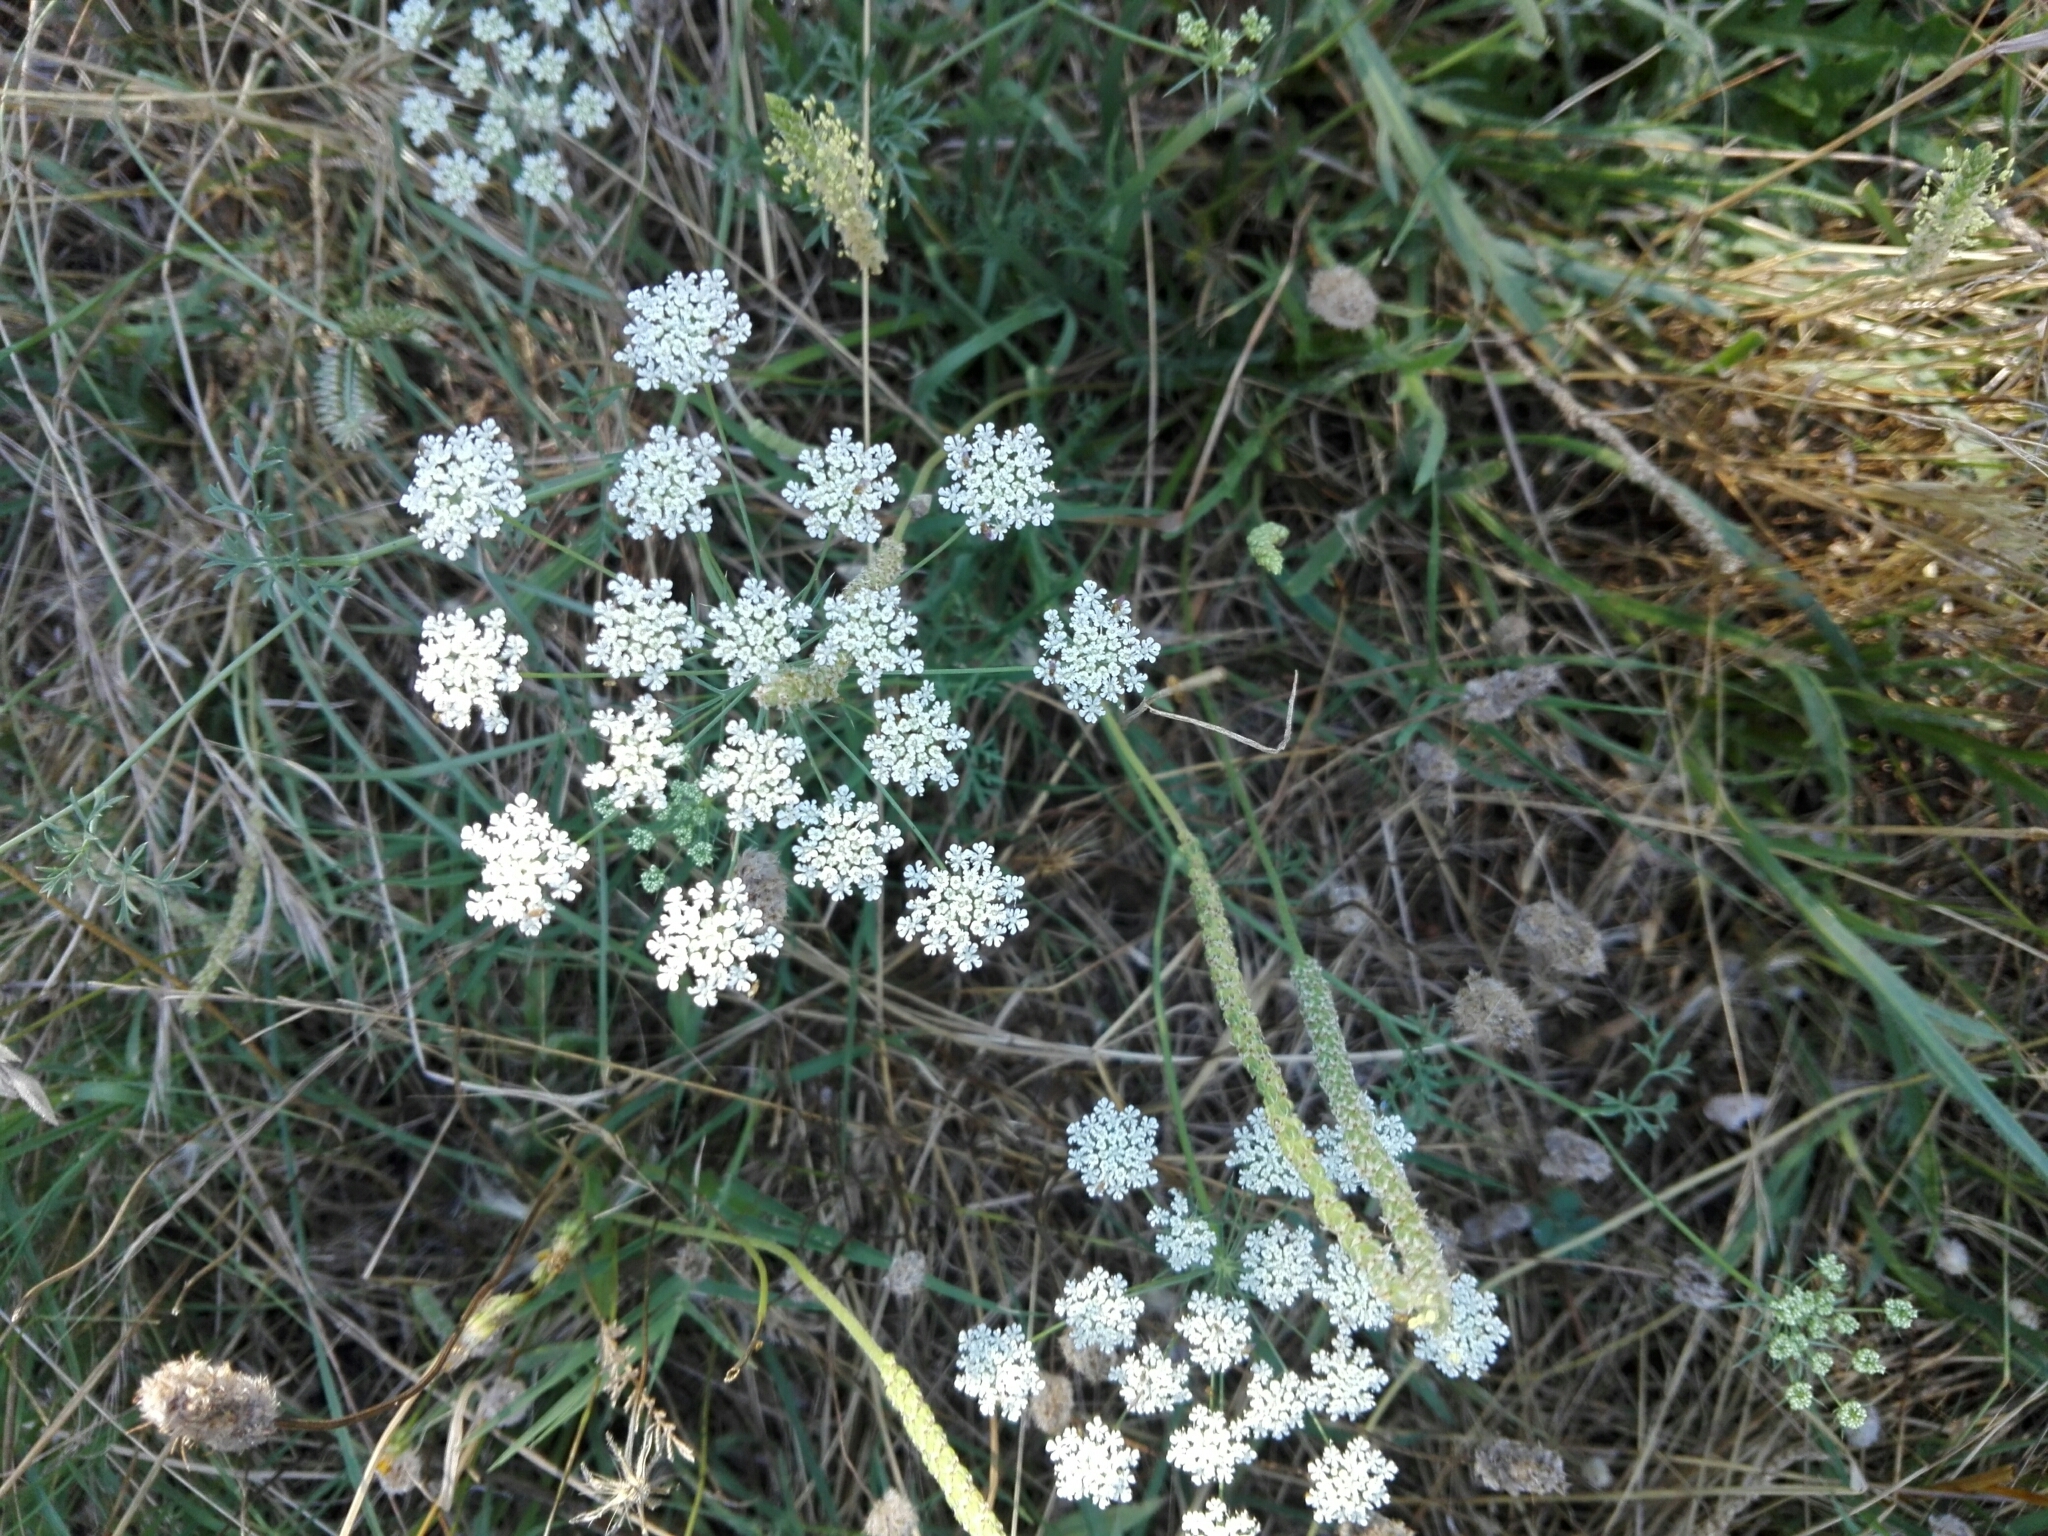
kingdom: Plantae
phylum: Tracheophyta
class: Magnoliopsida
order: Apiales
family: Apiaceae
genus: Daucus
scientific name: Daucus carota
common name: Wild carrot
